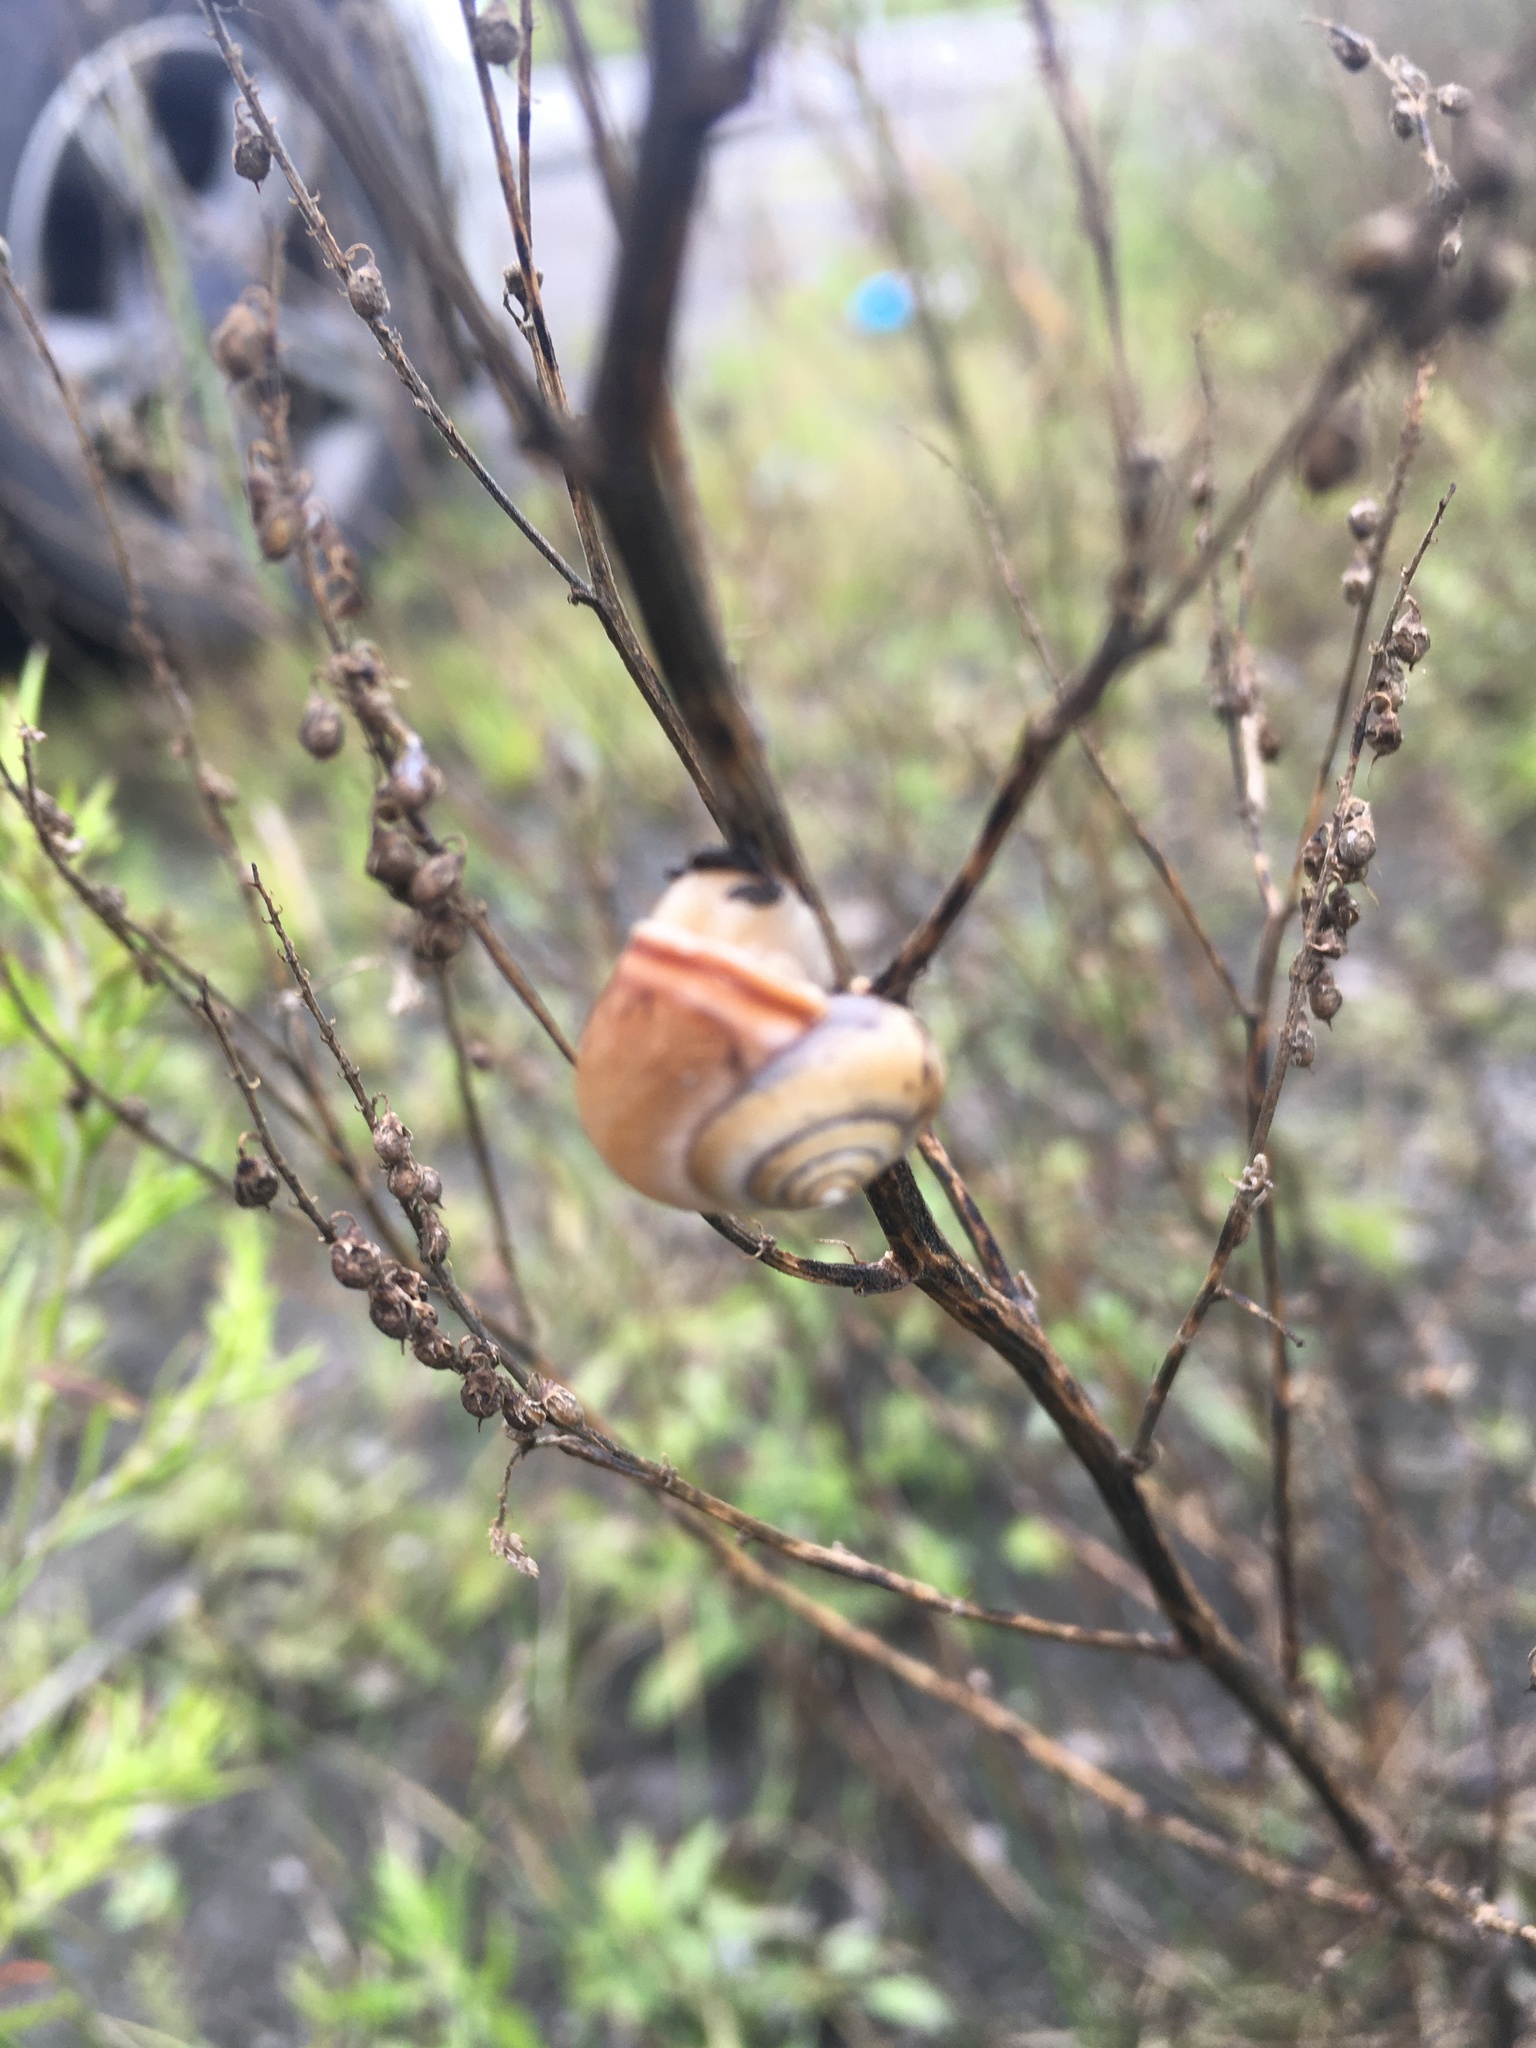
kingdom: Animalia
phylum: Mollusca
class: Gastropoda
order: Stylommatophora
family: Hygromiidae
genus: Monacha
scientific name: Monacha cartusiana
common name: Carthusian snail
